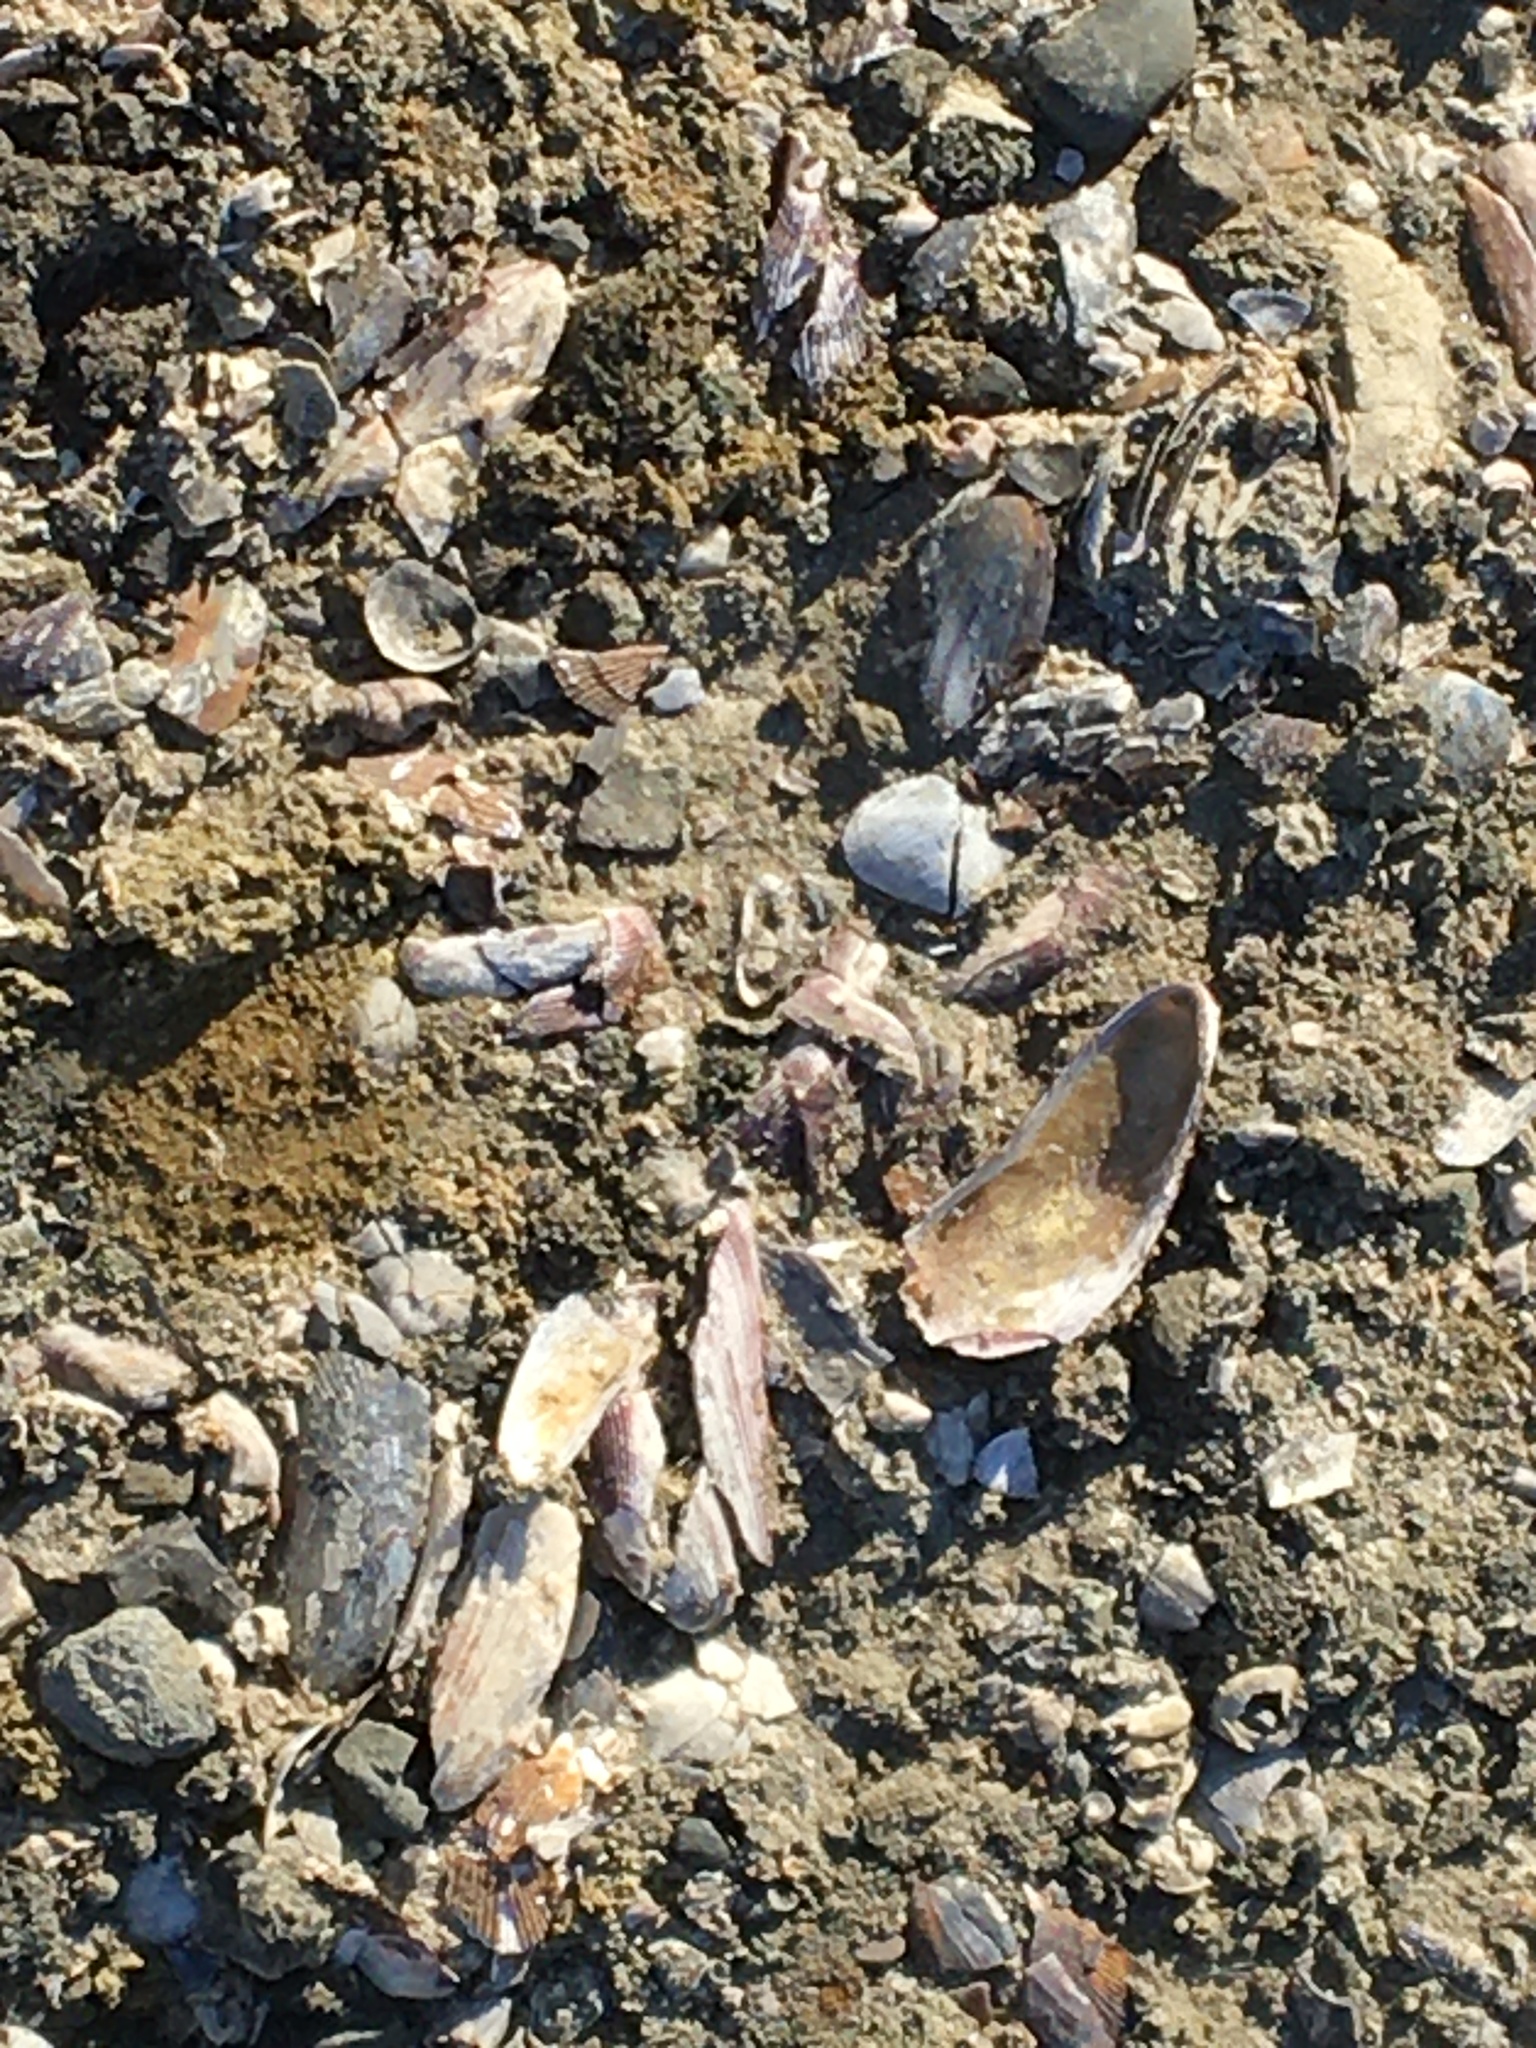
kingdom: Animalia
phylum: Mollusca
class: Bivalvia
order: Mytilida
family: Mytilidae
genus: Geukensia
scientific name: Geukensia demissa
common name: Ribbed mussel
